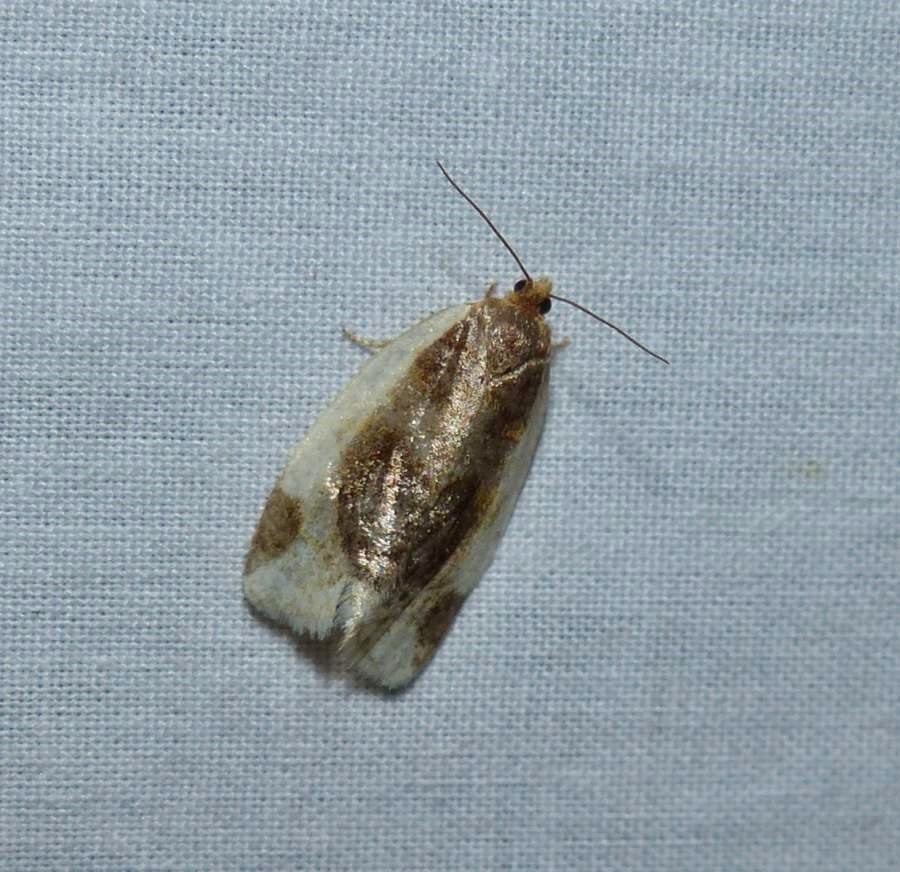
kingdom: Animalia
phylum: Arthropoda
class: Insecta
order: Lepidoptera
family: Tortricidae
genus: Clepsis
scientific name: Clepsis melaleucanus
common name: American apple tortrix
